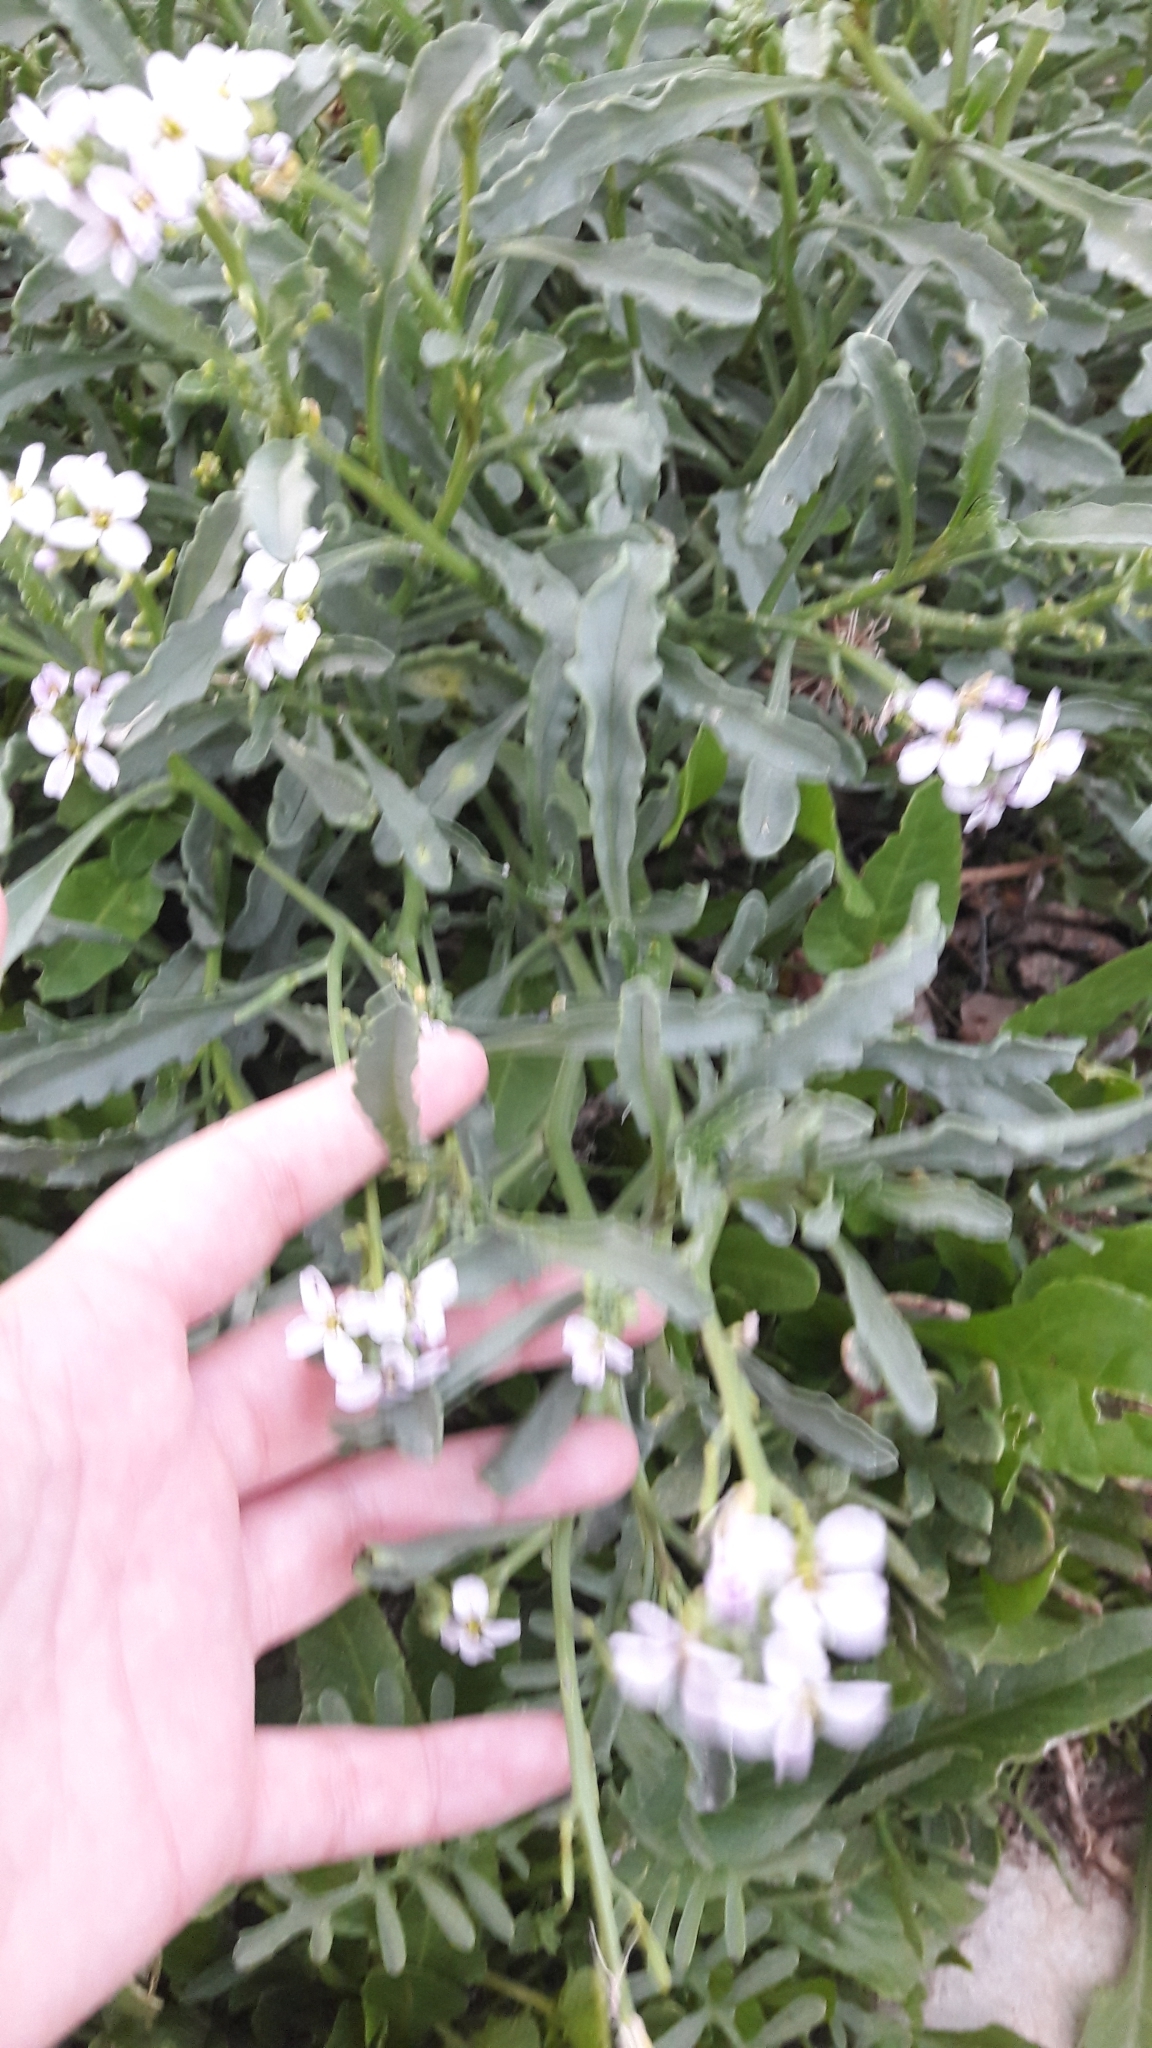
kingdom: Plantae
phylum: Tracheophyta
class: Magnoliopsida
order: Brassicales
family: Brassicaceae
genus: Diplotaxis
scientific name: Diplotaxis erucoides
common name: White rocket
